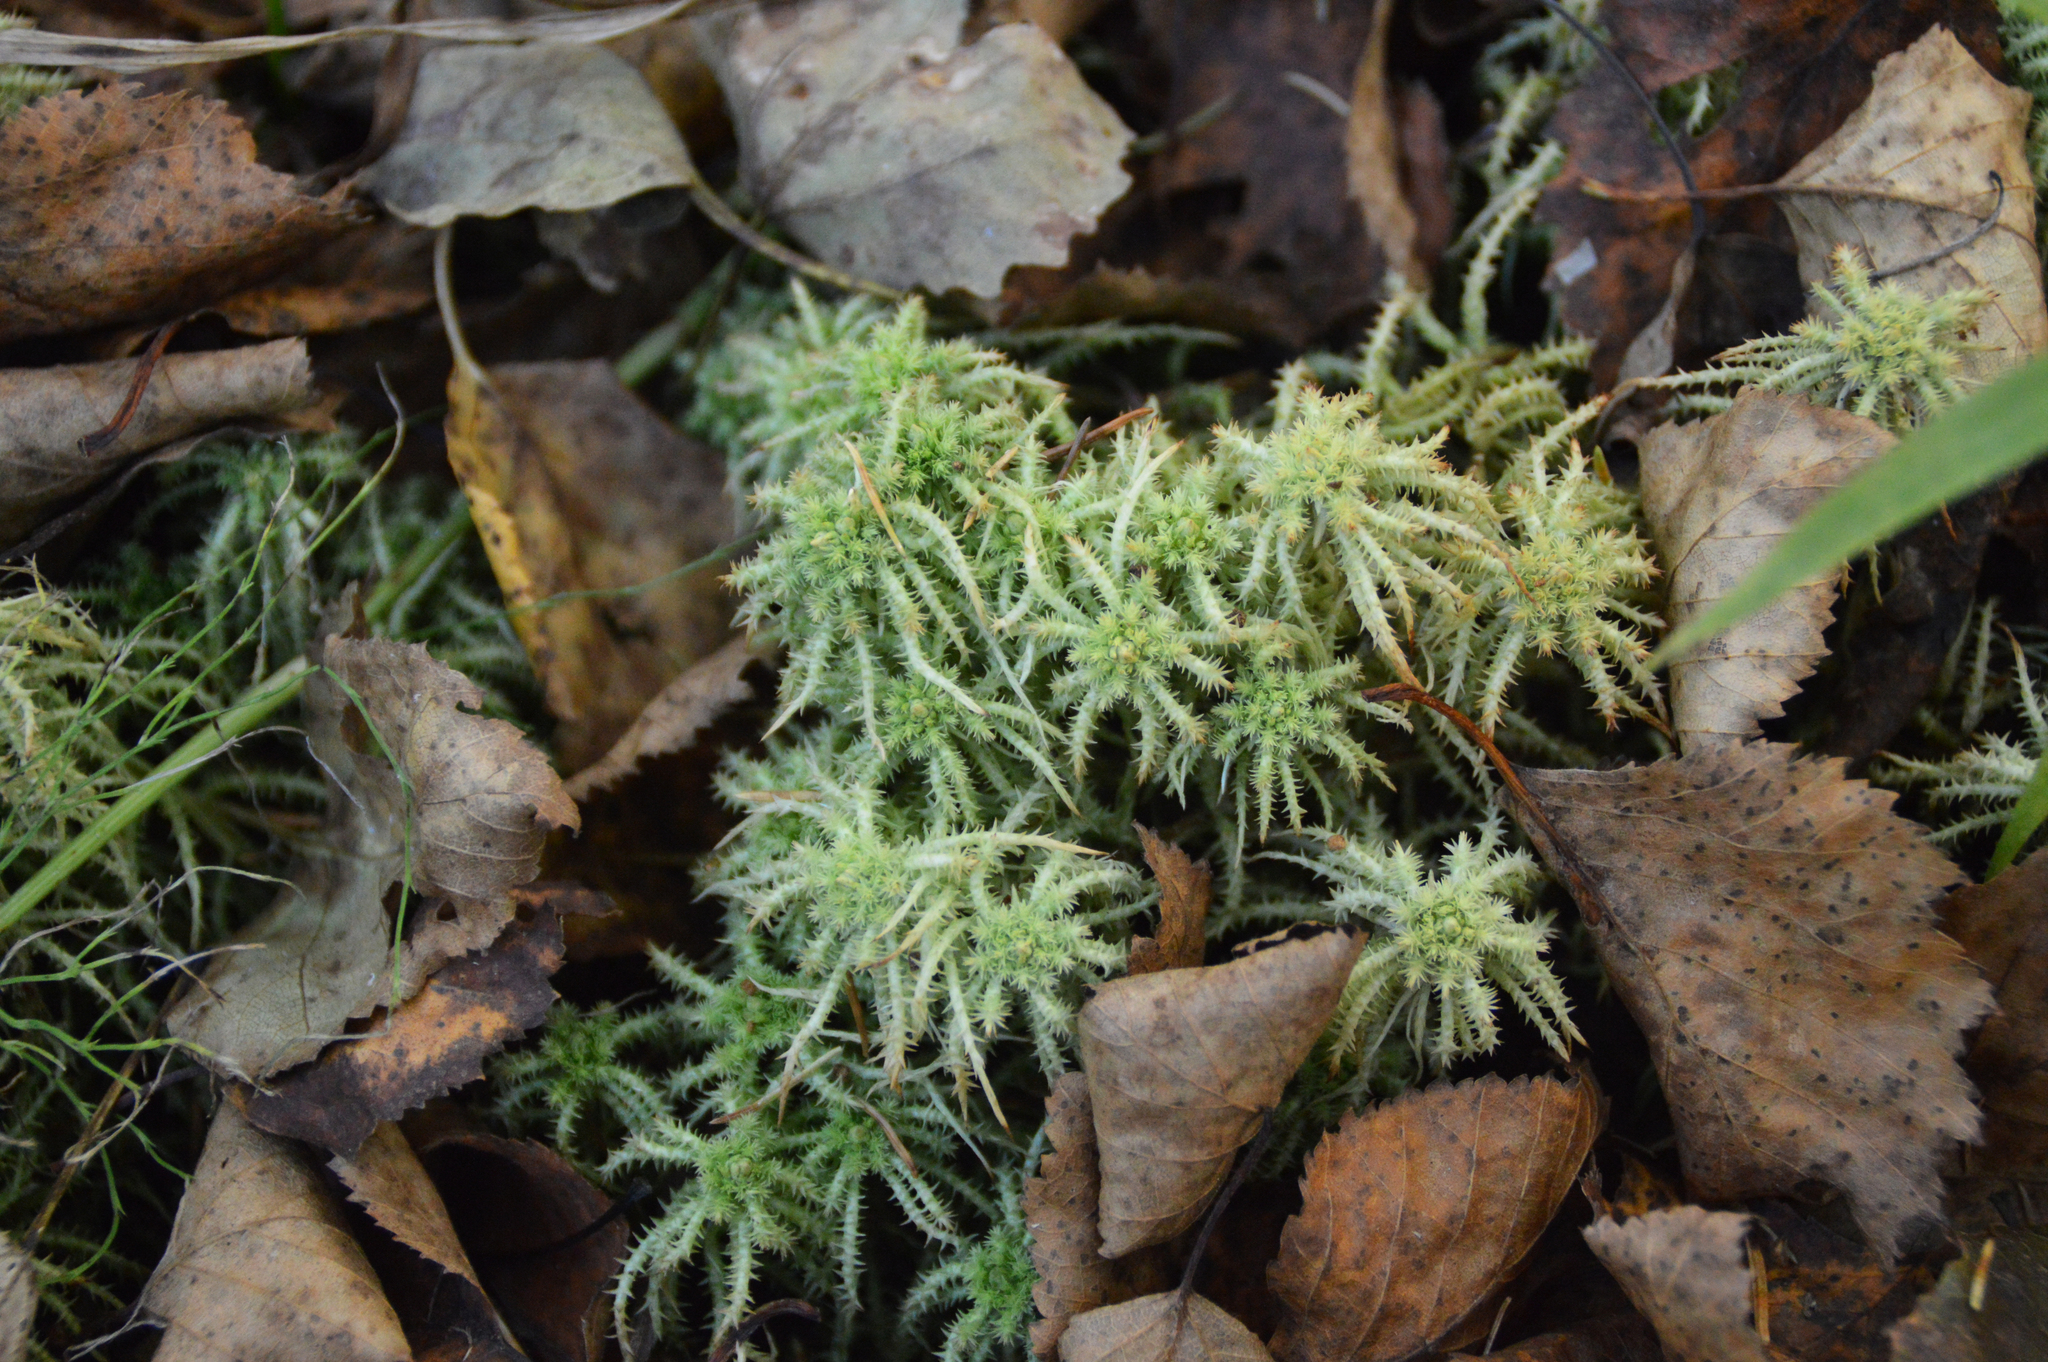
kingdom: Plantae
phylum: Bryophyta
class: Sphagnopsida
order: Sphagnales
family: Sphagnaceae
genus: Sphagnum
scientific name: Sphagnum squarrosum
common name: Shaggy peat moss
